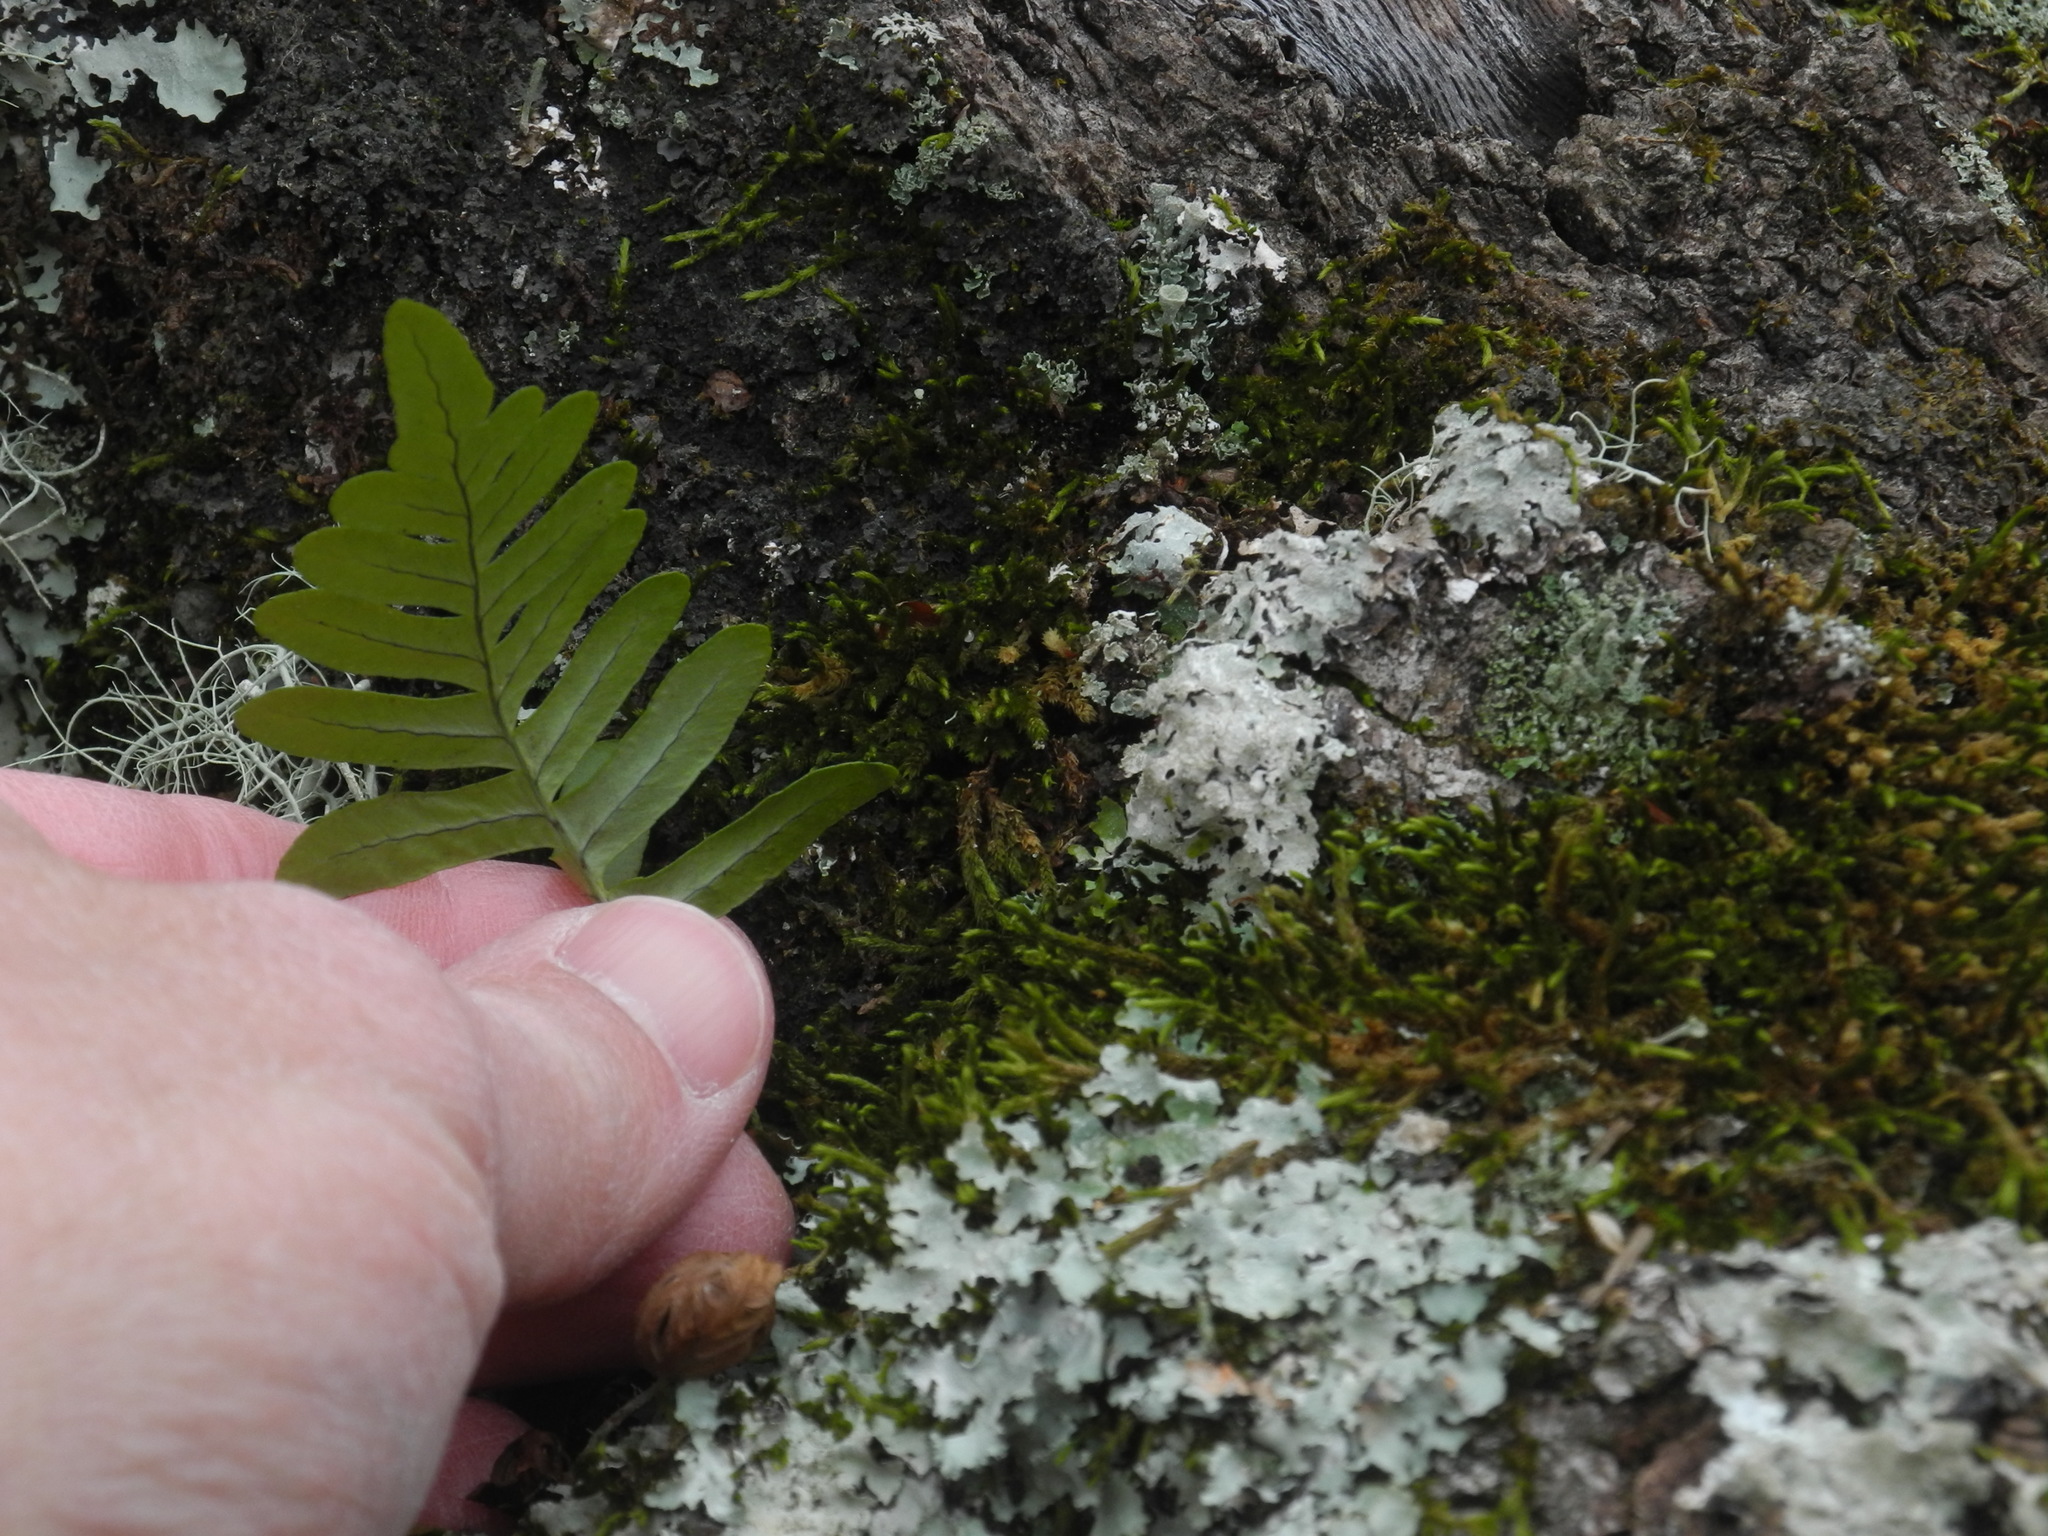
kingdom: Plantae
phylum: Tracheophyta
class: Polypodiopsida
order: Polypodiales
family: Polypodiaceae
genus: Polypodium
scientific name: Polypodium virginianum
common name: American wall fern
